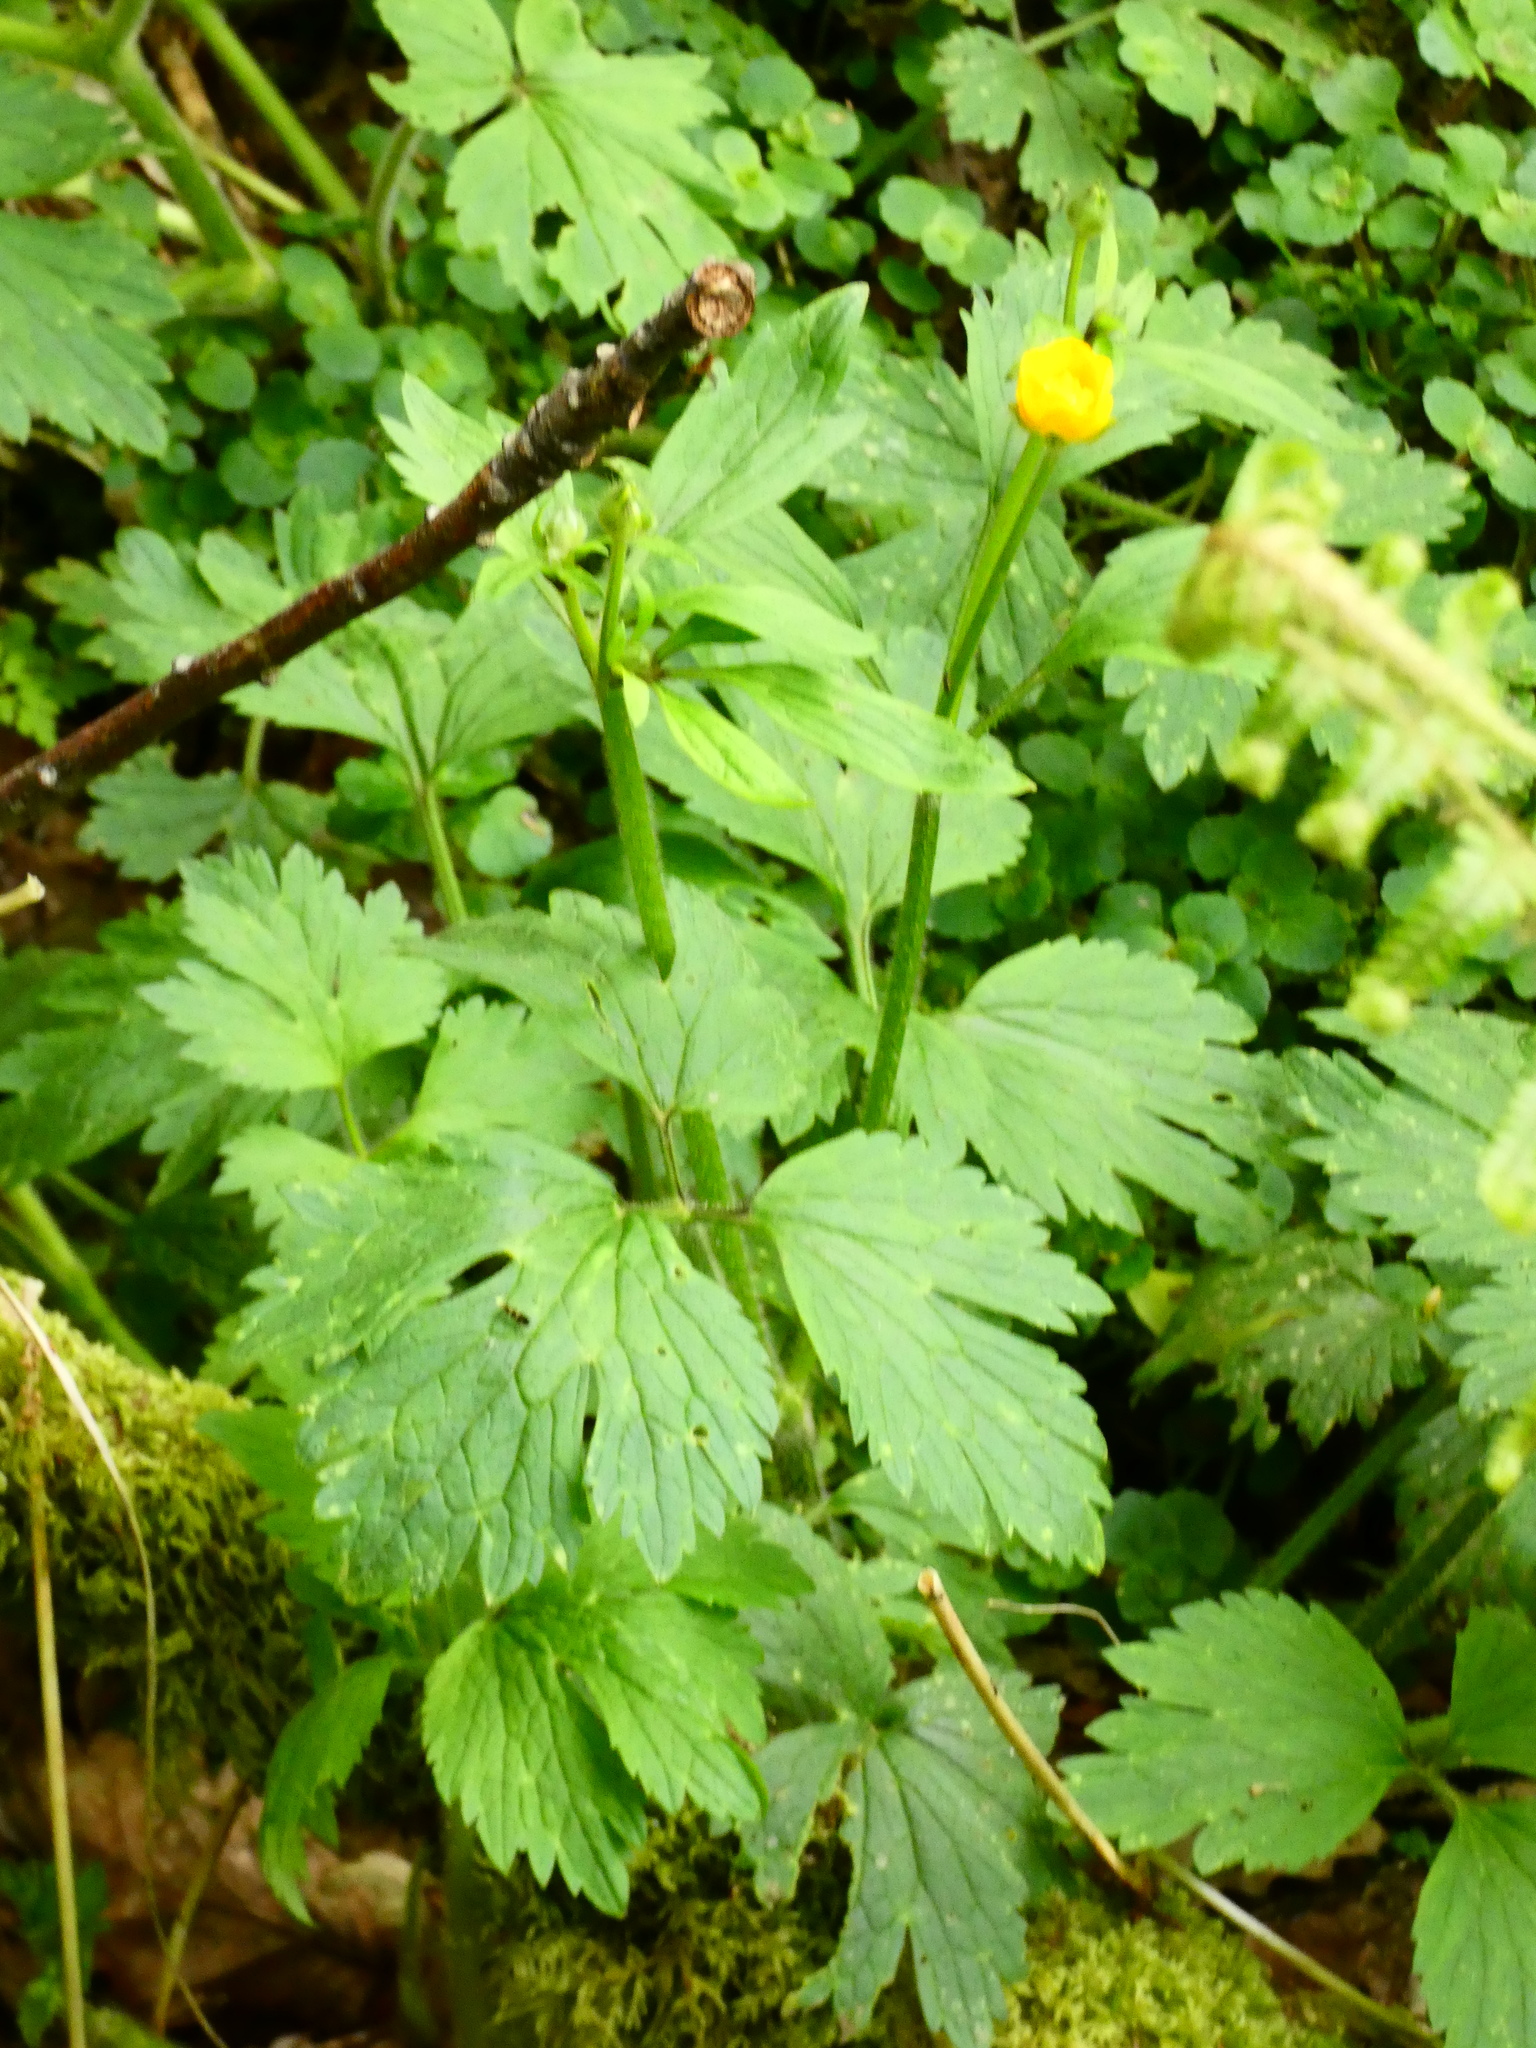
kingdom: Plantae
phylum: Tracheophyta
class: Magnoliopsida
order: Ranunculales
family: Ranunculaceae
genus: Ranunculus
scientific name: Ranunculus repens
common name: Creeping buttercup
